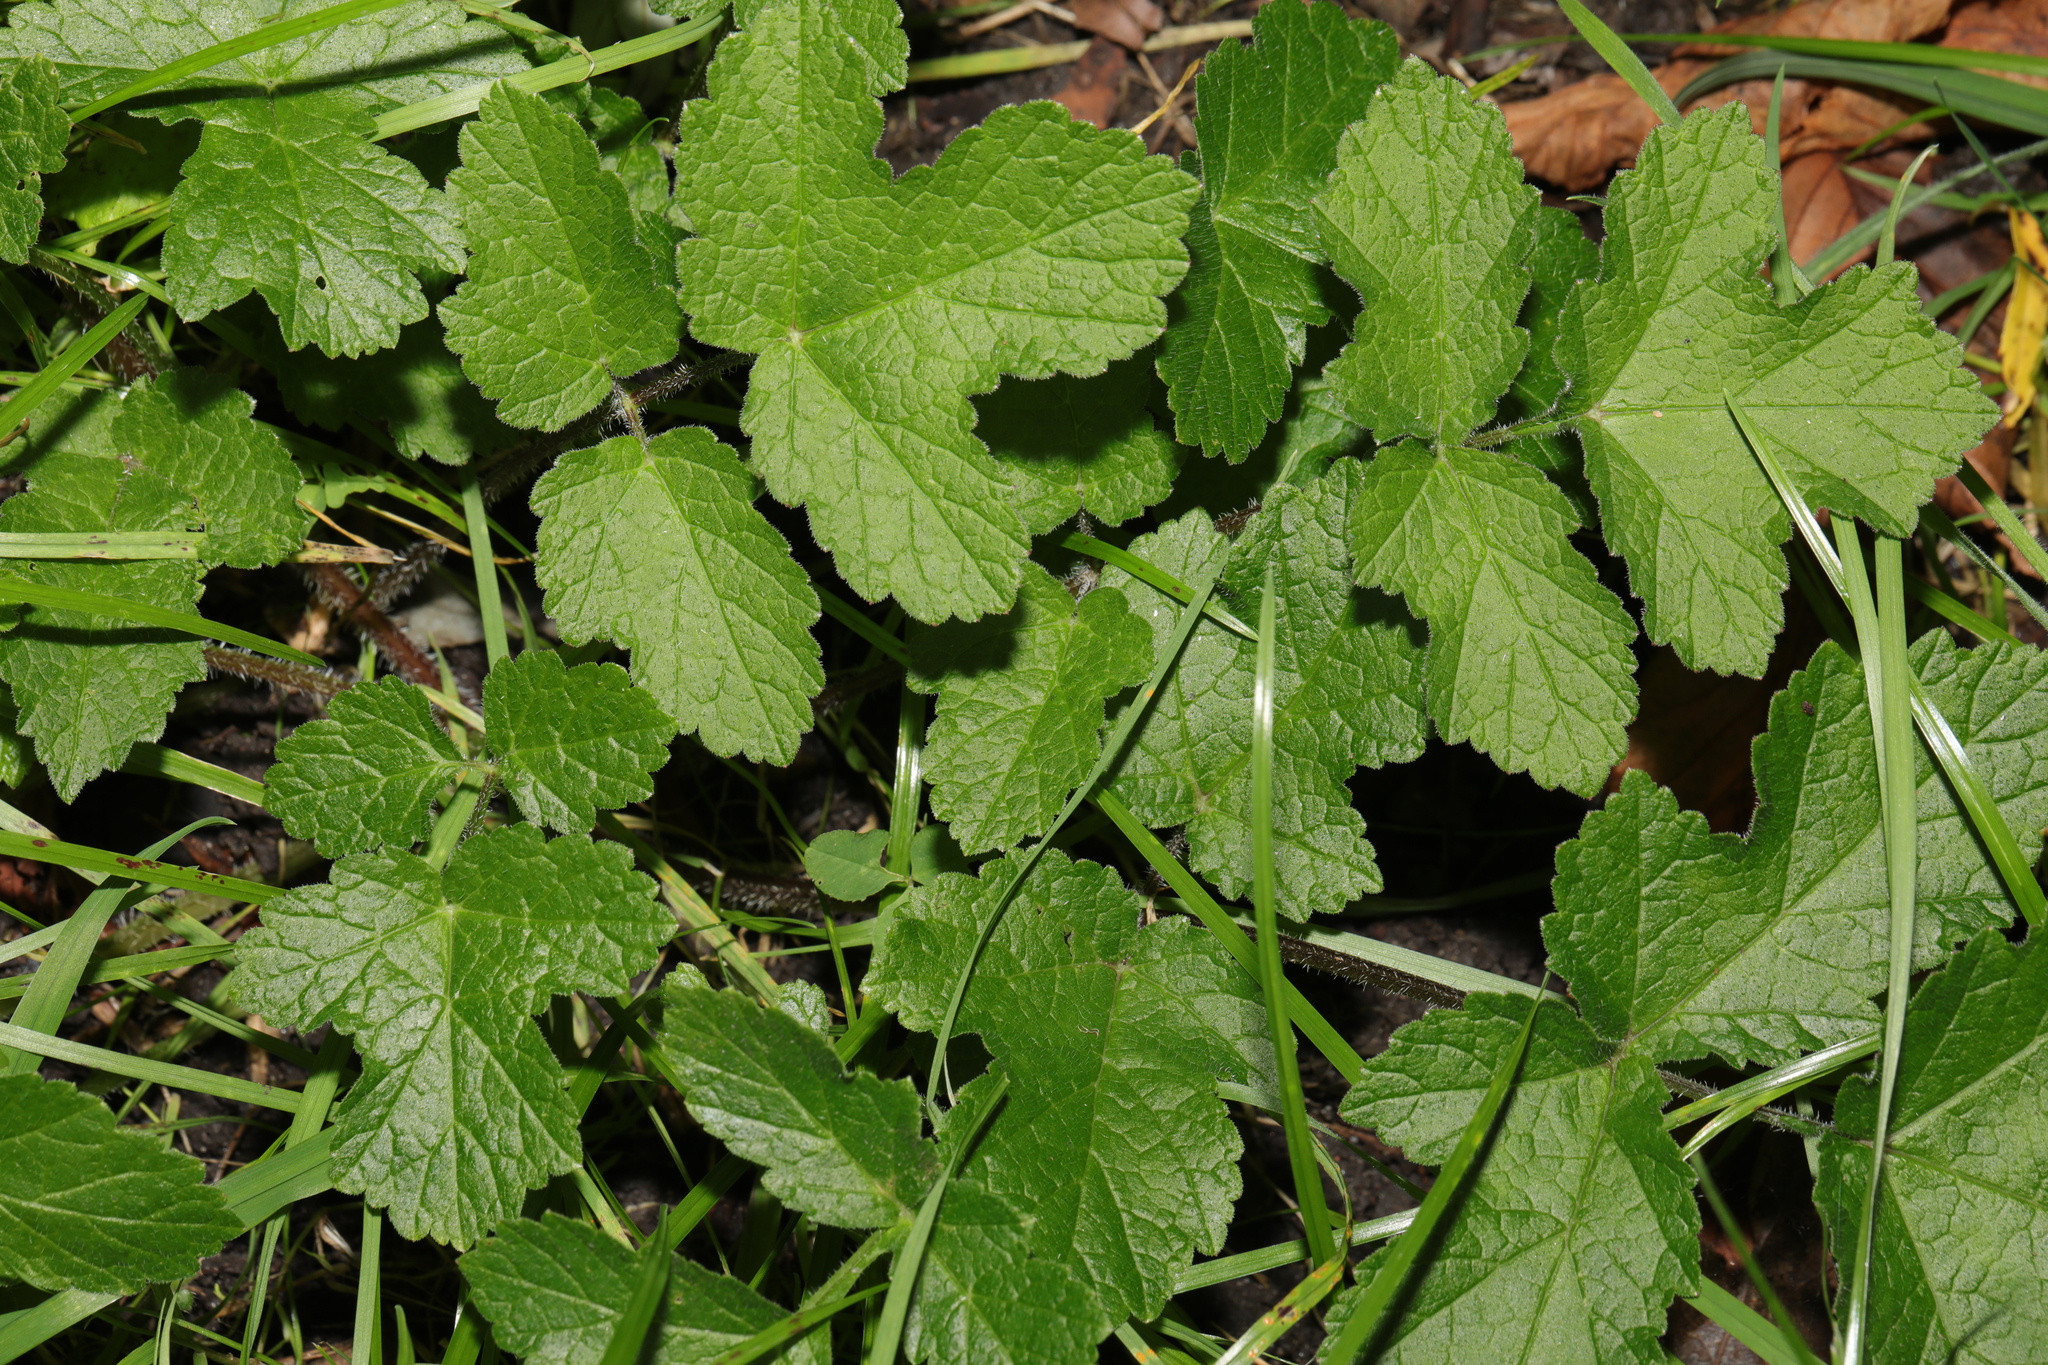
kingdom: Plantae
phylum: Tracheophyta
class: Magnoliopsida
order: Apiales
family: Apiaceae
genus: Heracleum
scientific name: Heracleum sphondylium
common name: Hogweed
